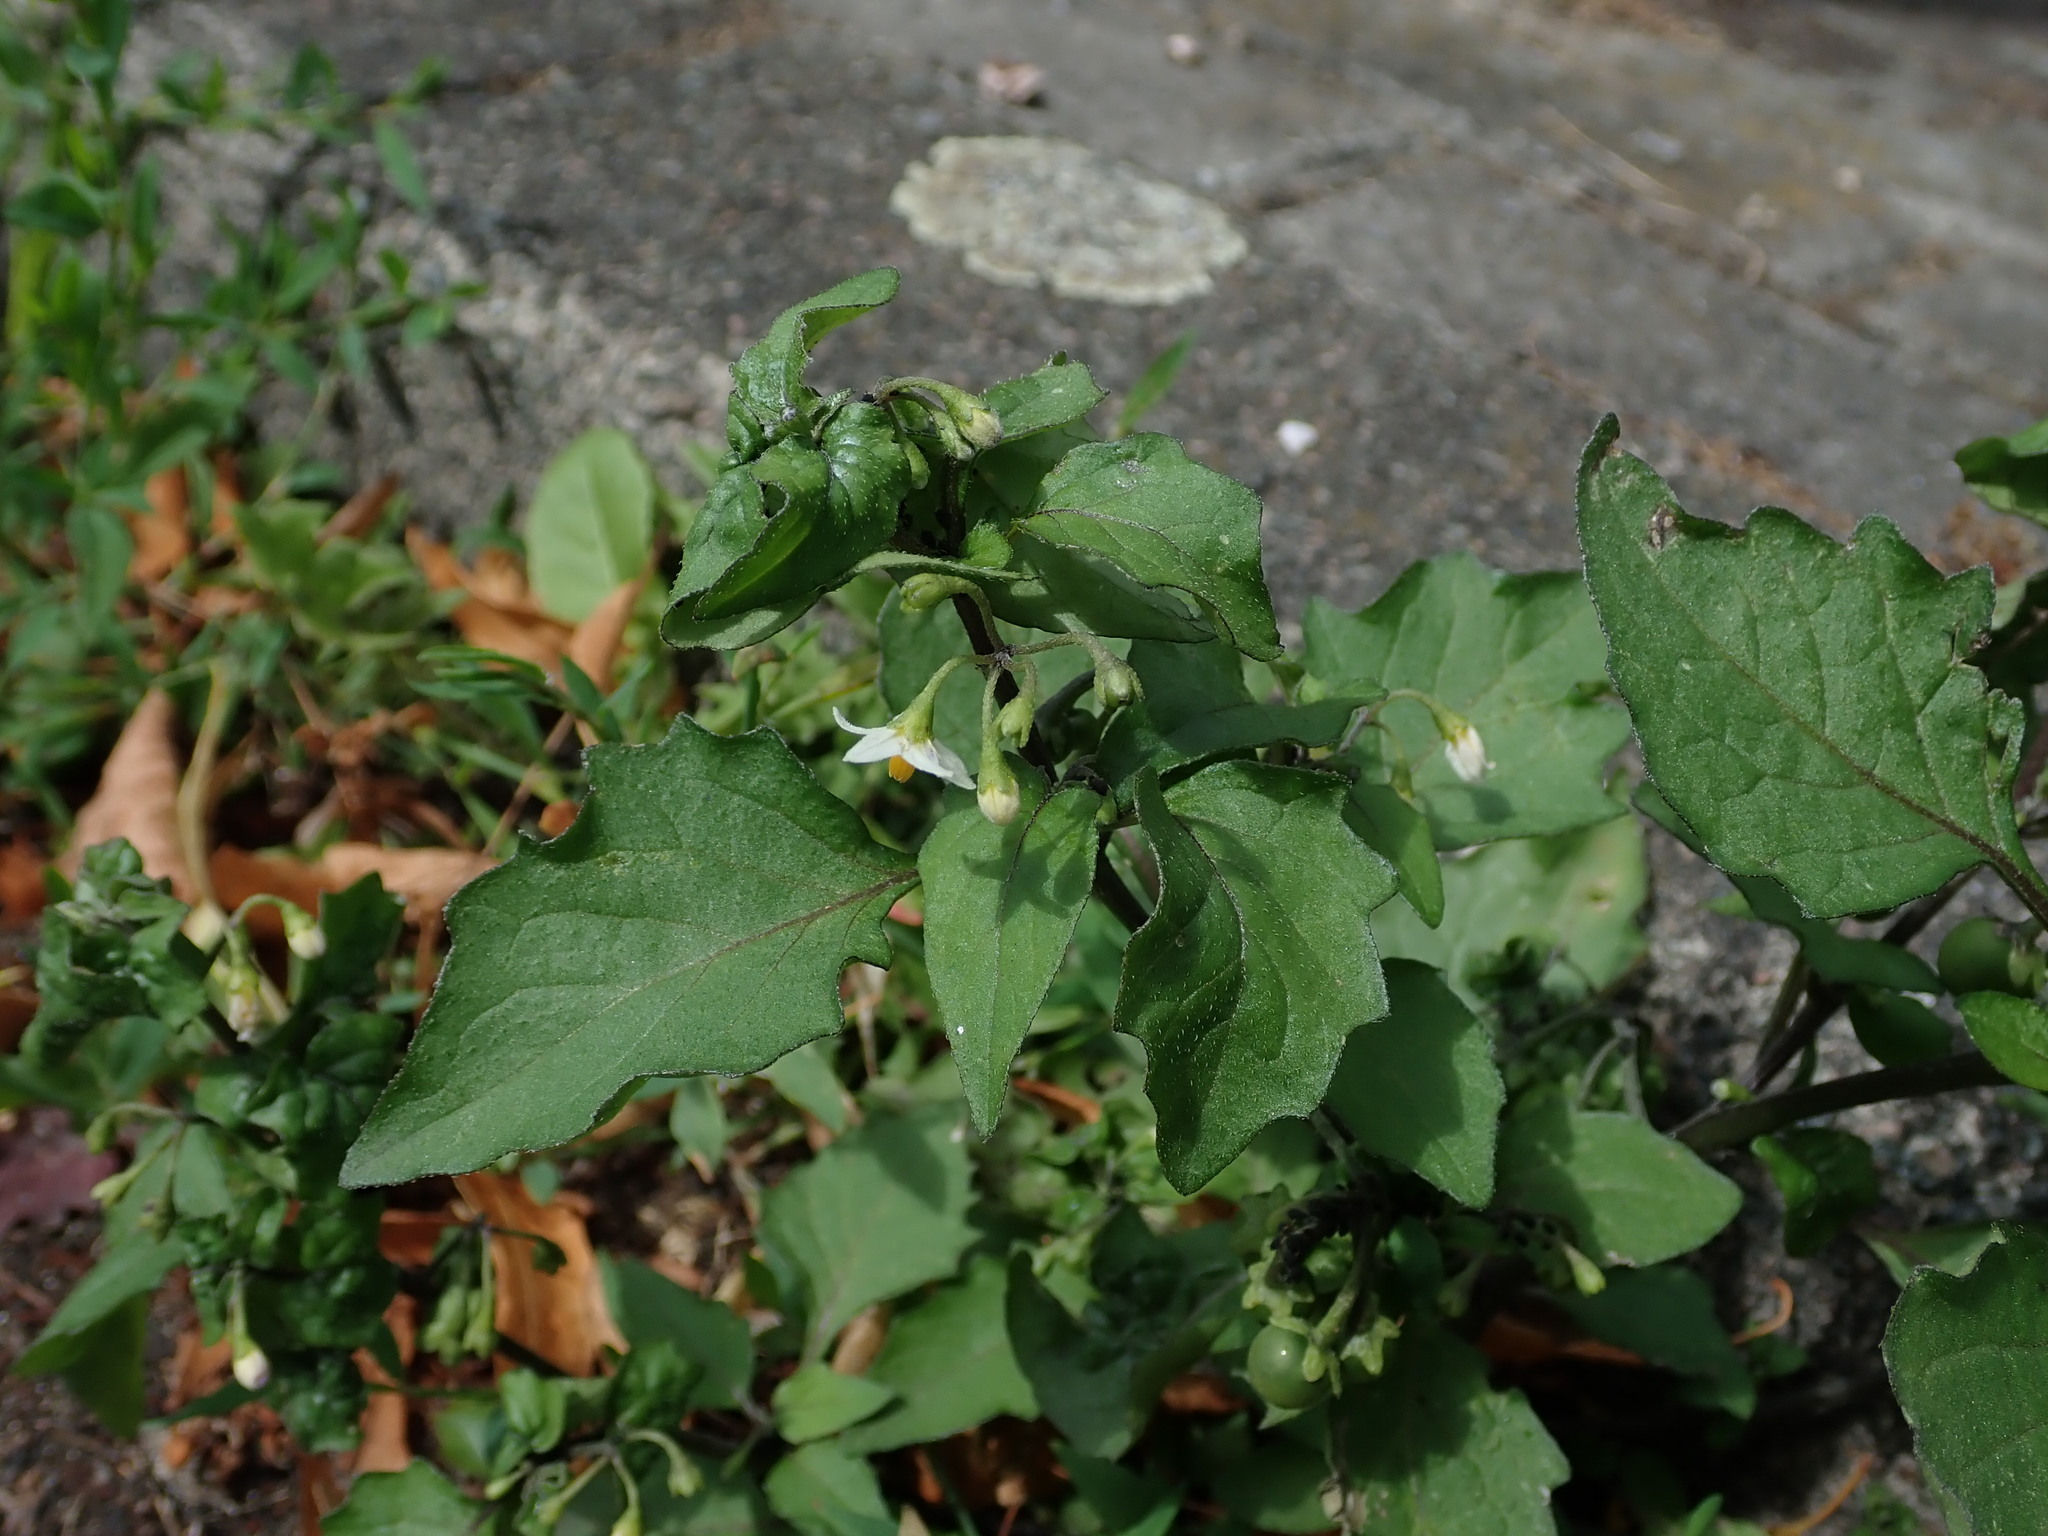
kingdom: Plantae
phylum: Tracheophyta
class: Magnoliopsida
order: Solanales
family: Solanaceae
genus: Solanum
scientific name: Solanum nigrum
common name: Black nightshade
